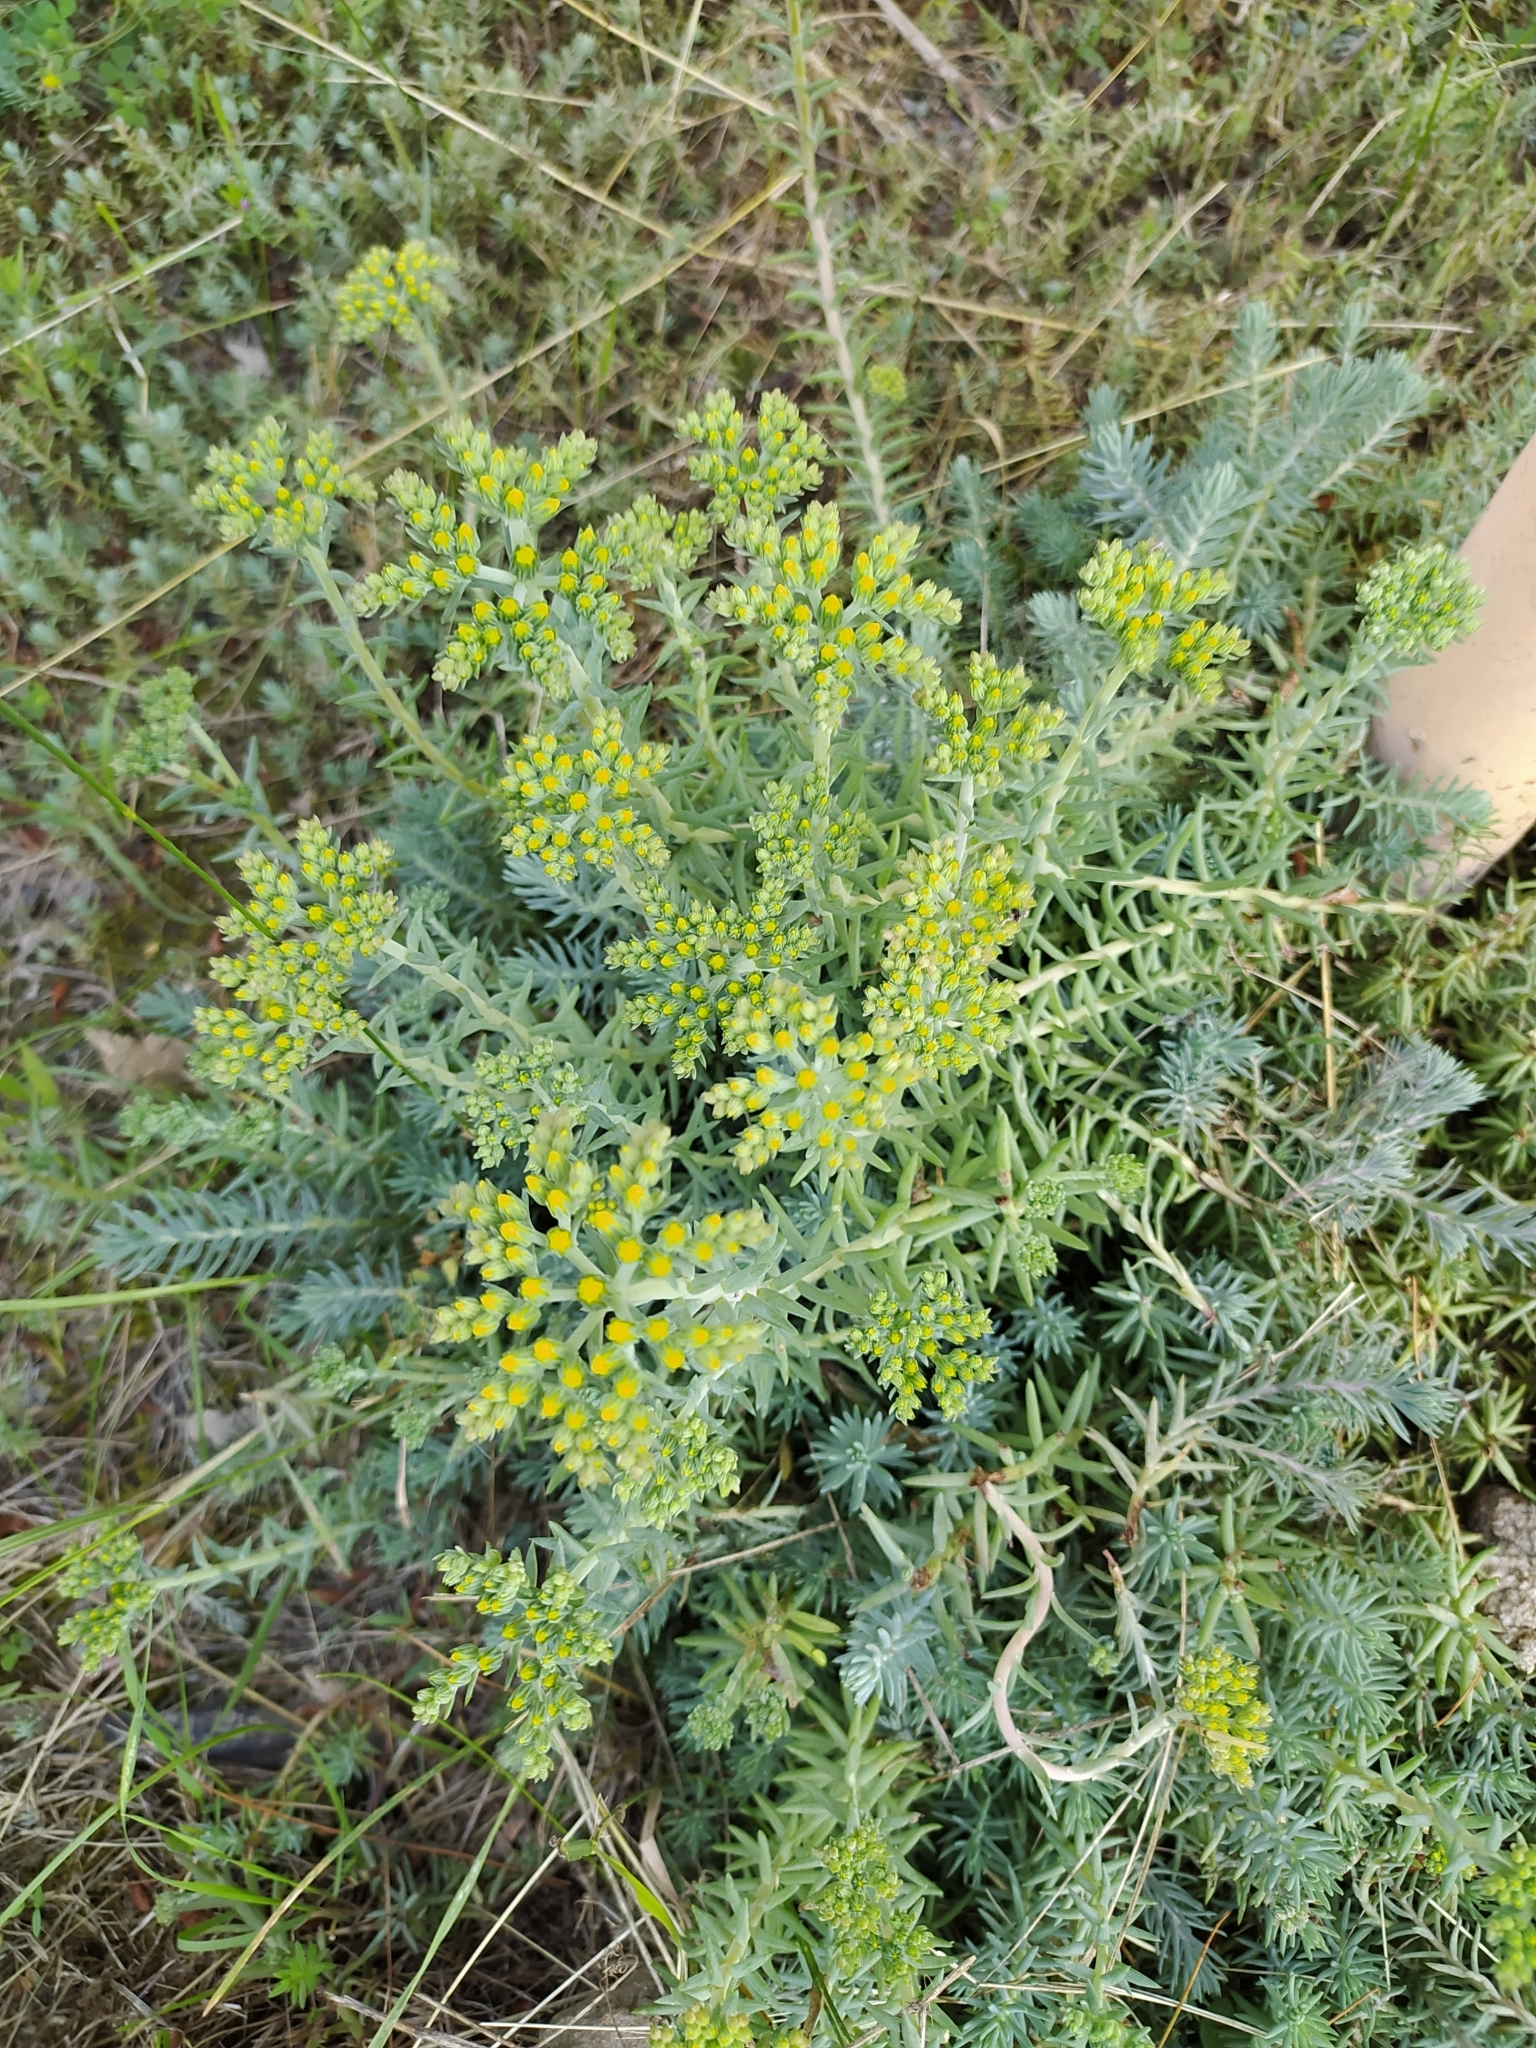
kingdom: Plantae
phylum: Tracheophyta
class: Magnoliopsida
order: Saxifragales
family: Crassulaceae
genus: Petrosedum
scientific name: Petrosedum orientale
